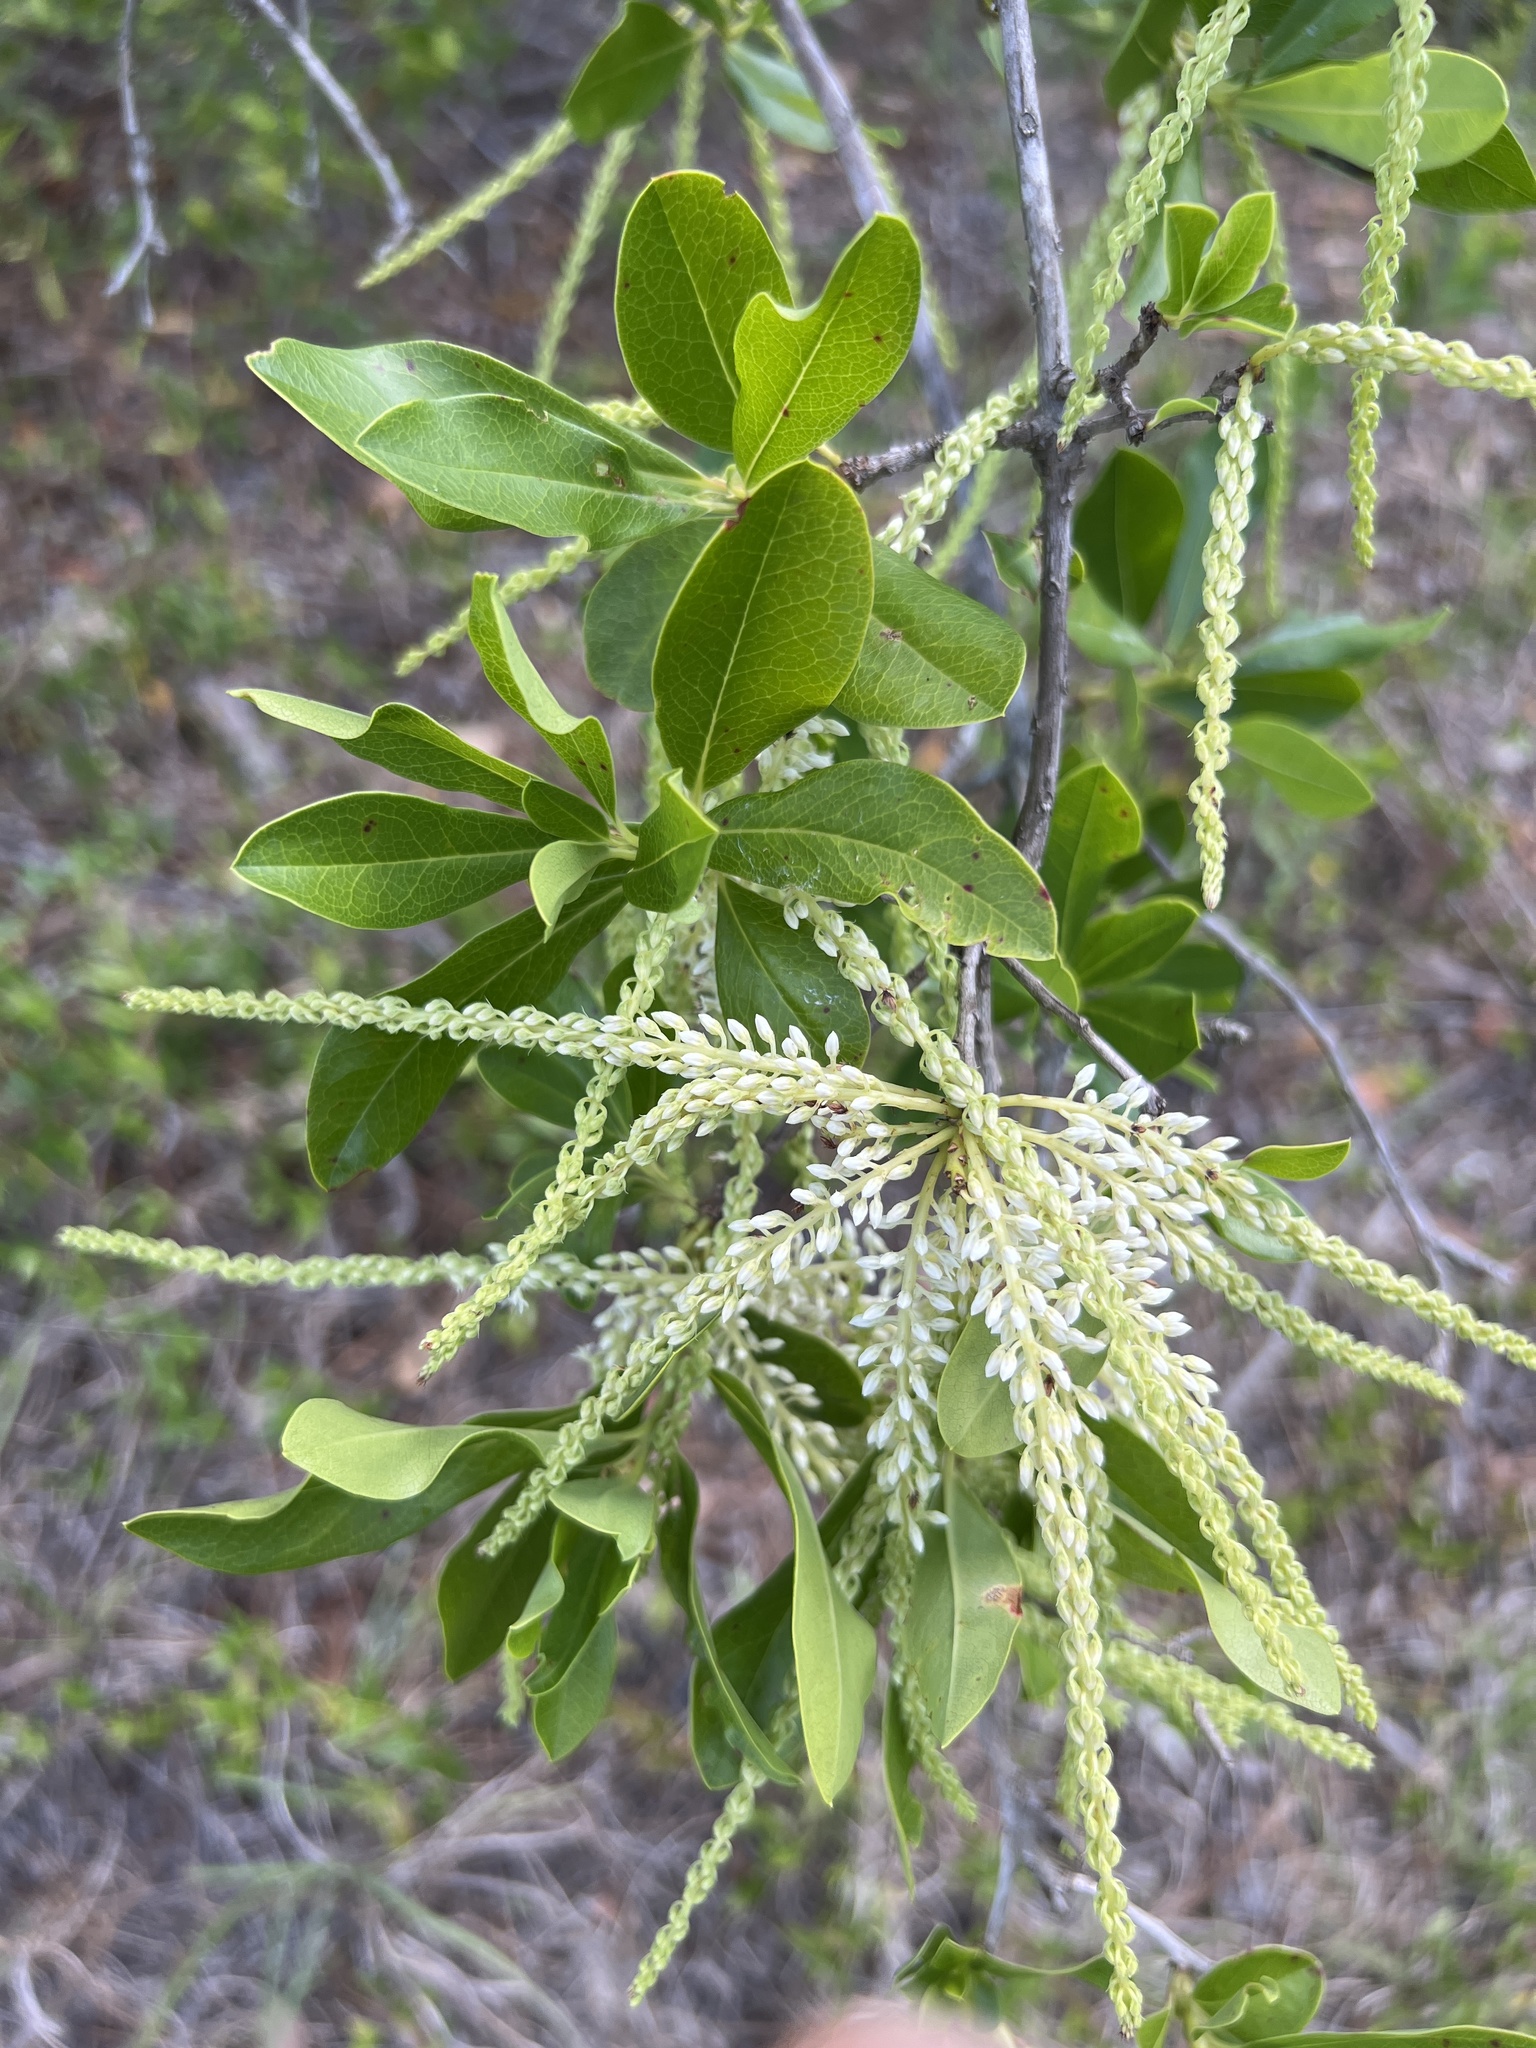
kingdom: Plantae
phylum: Tracheophyta
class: Magnoliopsida
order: Ericales
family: Cyrillaceae
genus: Cyrilla
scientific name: Cyrilla racemiflora
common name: Black titi
